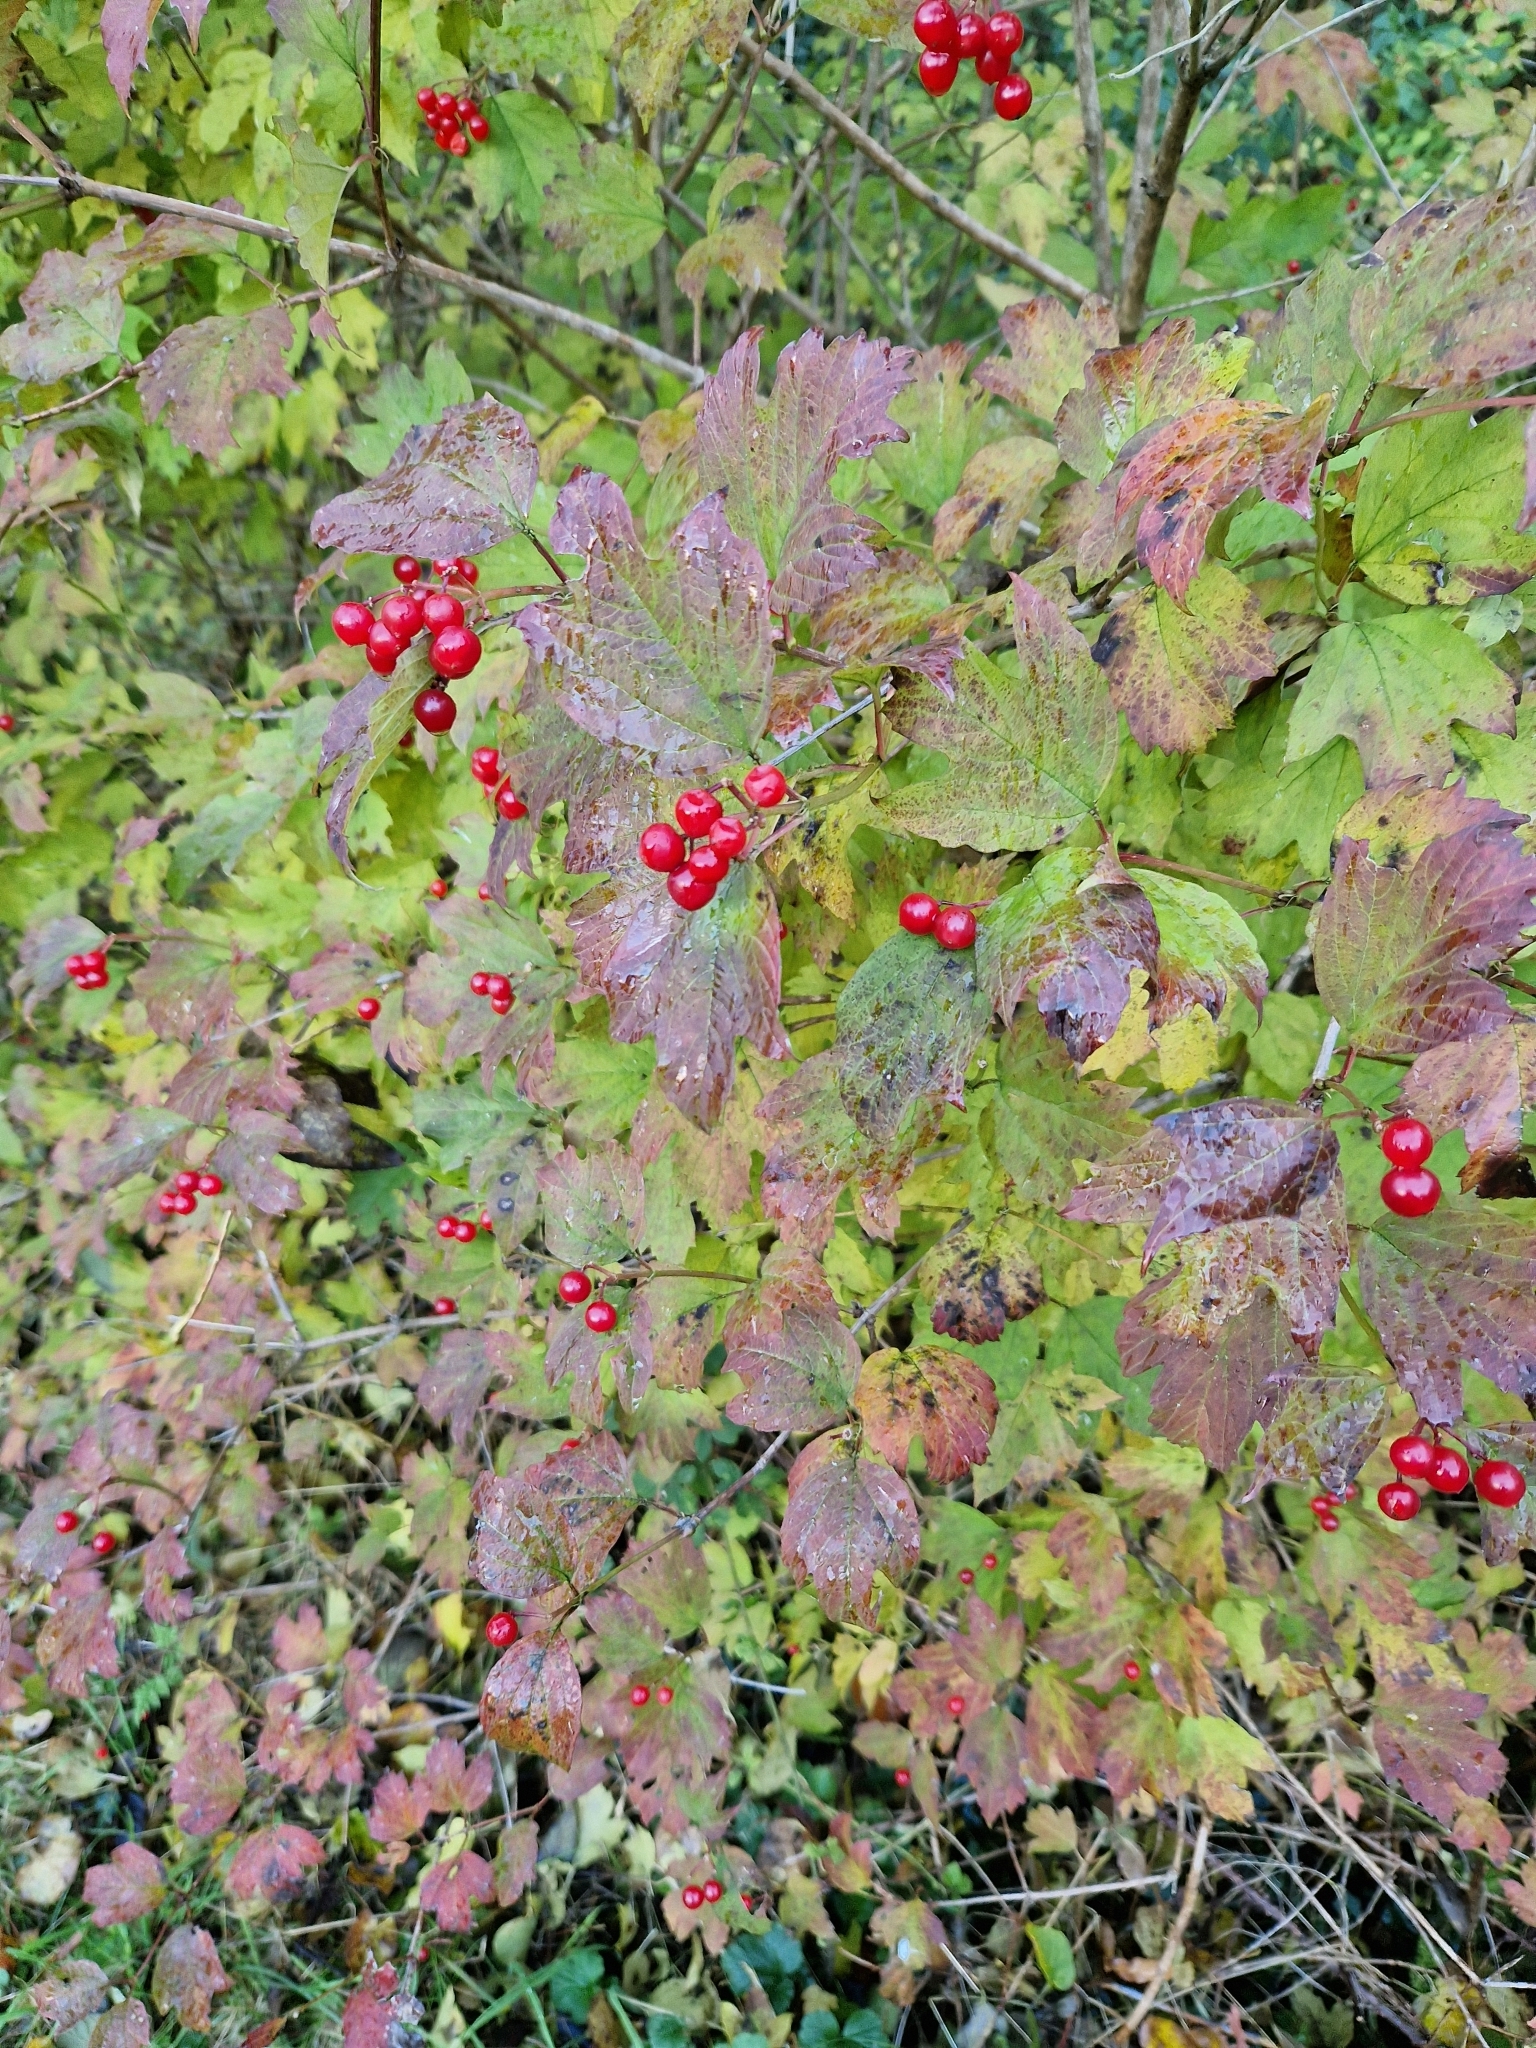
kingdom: Plantae
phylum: Tracheophyta
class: Magnoliopsida
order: Dipsacales
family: Viburnaceae
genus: Viburnum
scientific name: Viburnum opulus
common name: Guelder-rose
